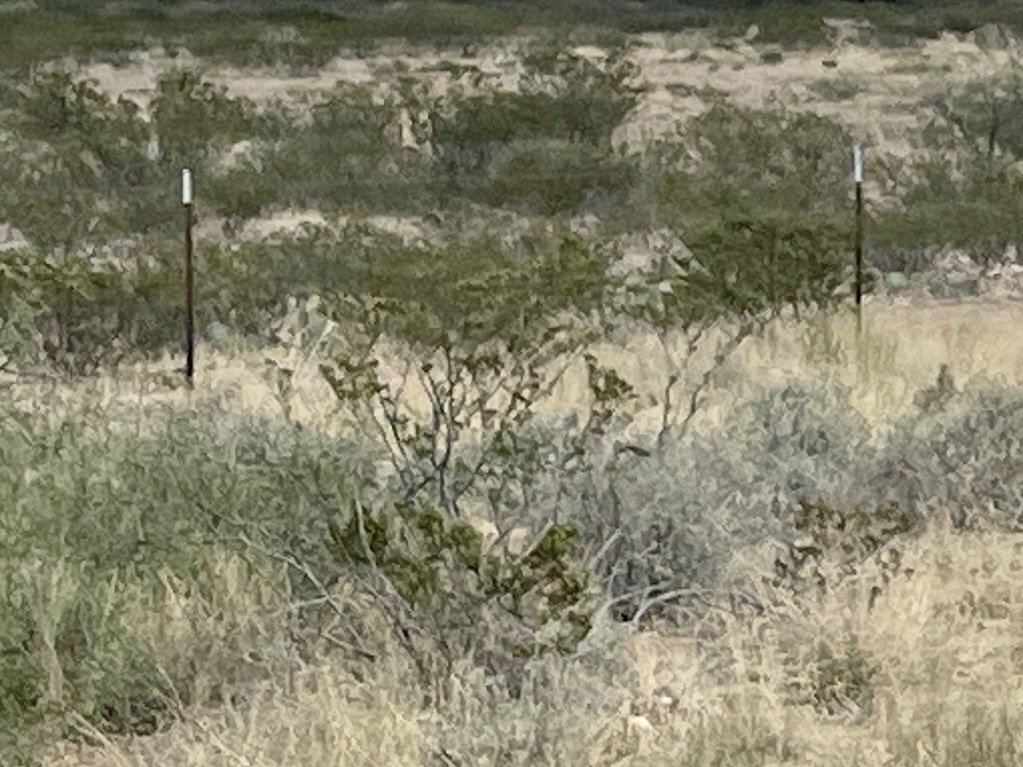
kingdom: Plantae
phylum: Tracheophyta
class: Magnoliopsida
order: Zygophyllales
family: Zygophyllaceae
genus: Larrea
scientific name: Larrea tridentata
